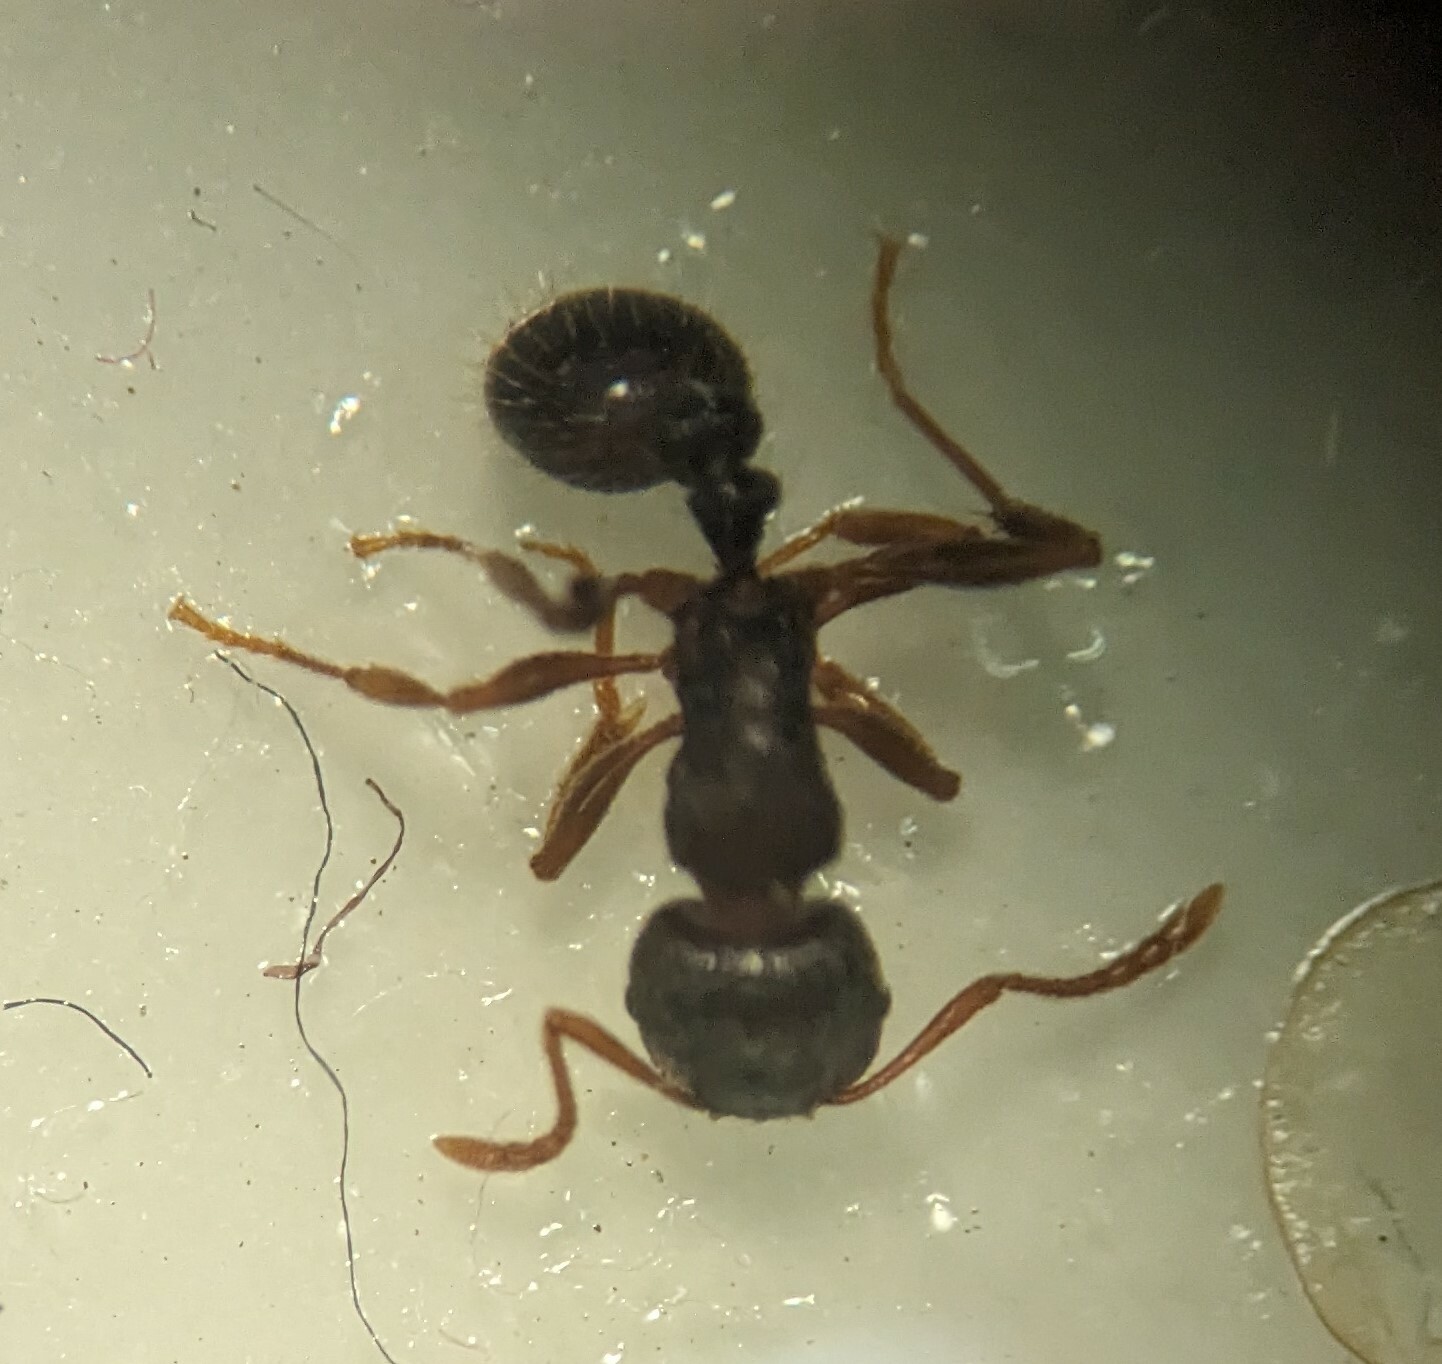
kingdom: Animalia
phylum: Arthropoda
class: Insecta
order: Hymenoptera
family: Formicidae
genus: Tetramorium
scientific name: Tetramorium immigrans
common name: Pavement ant
